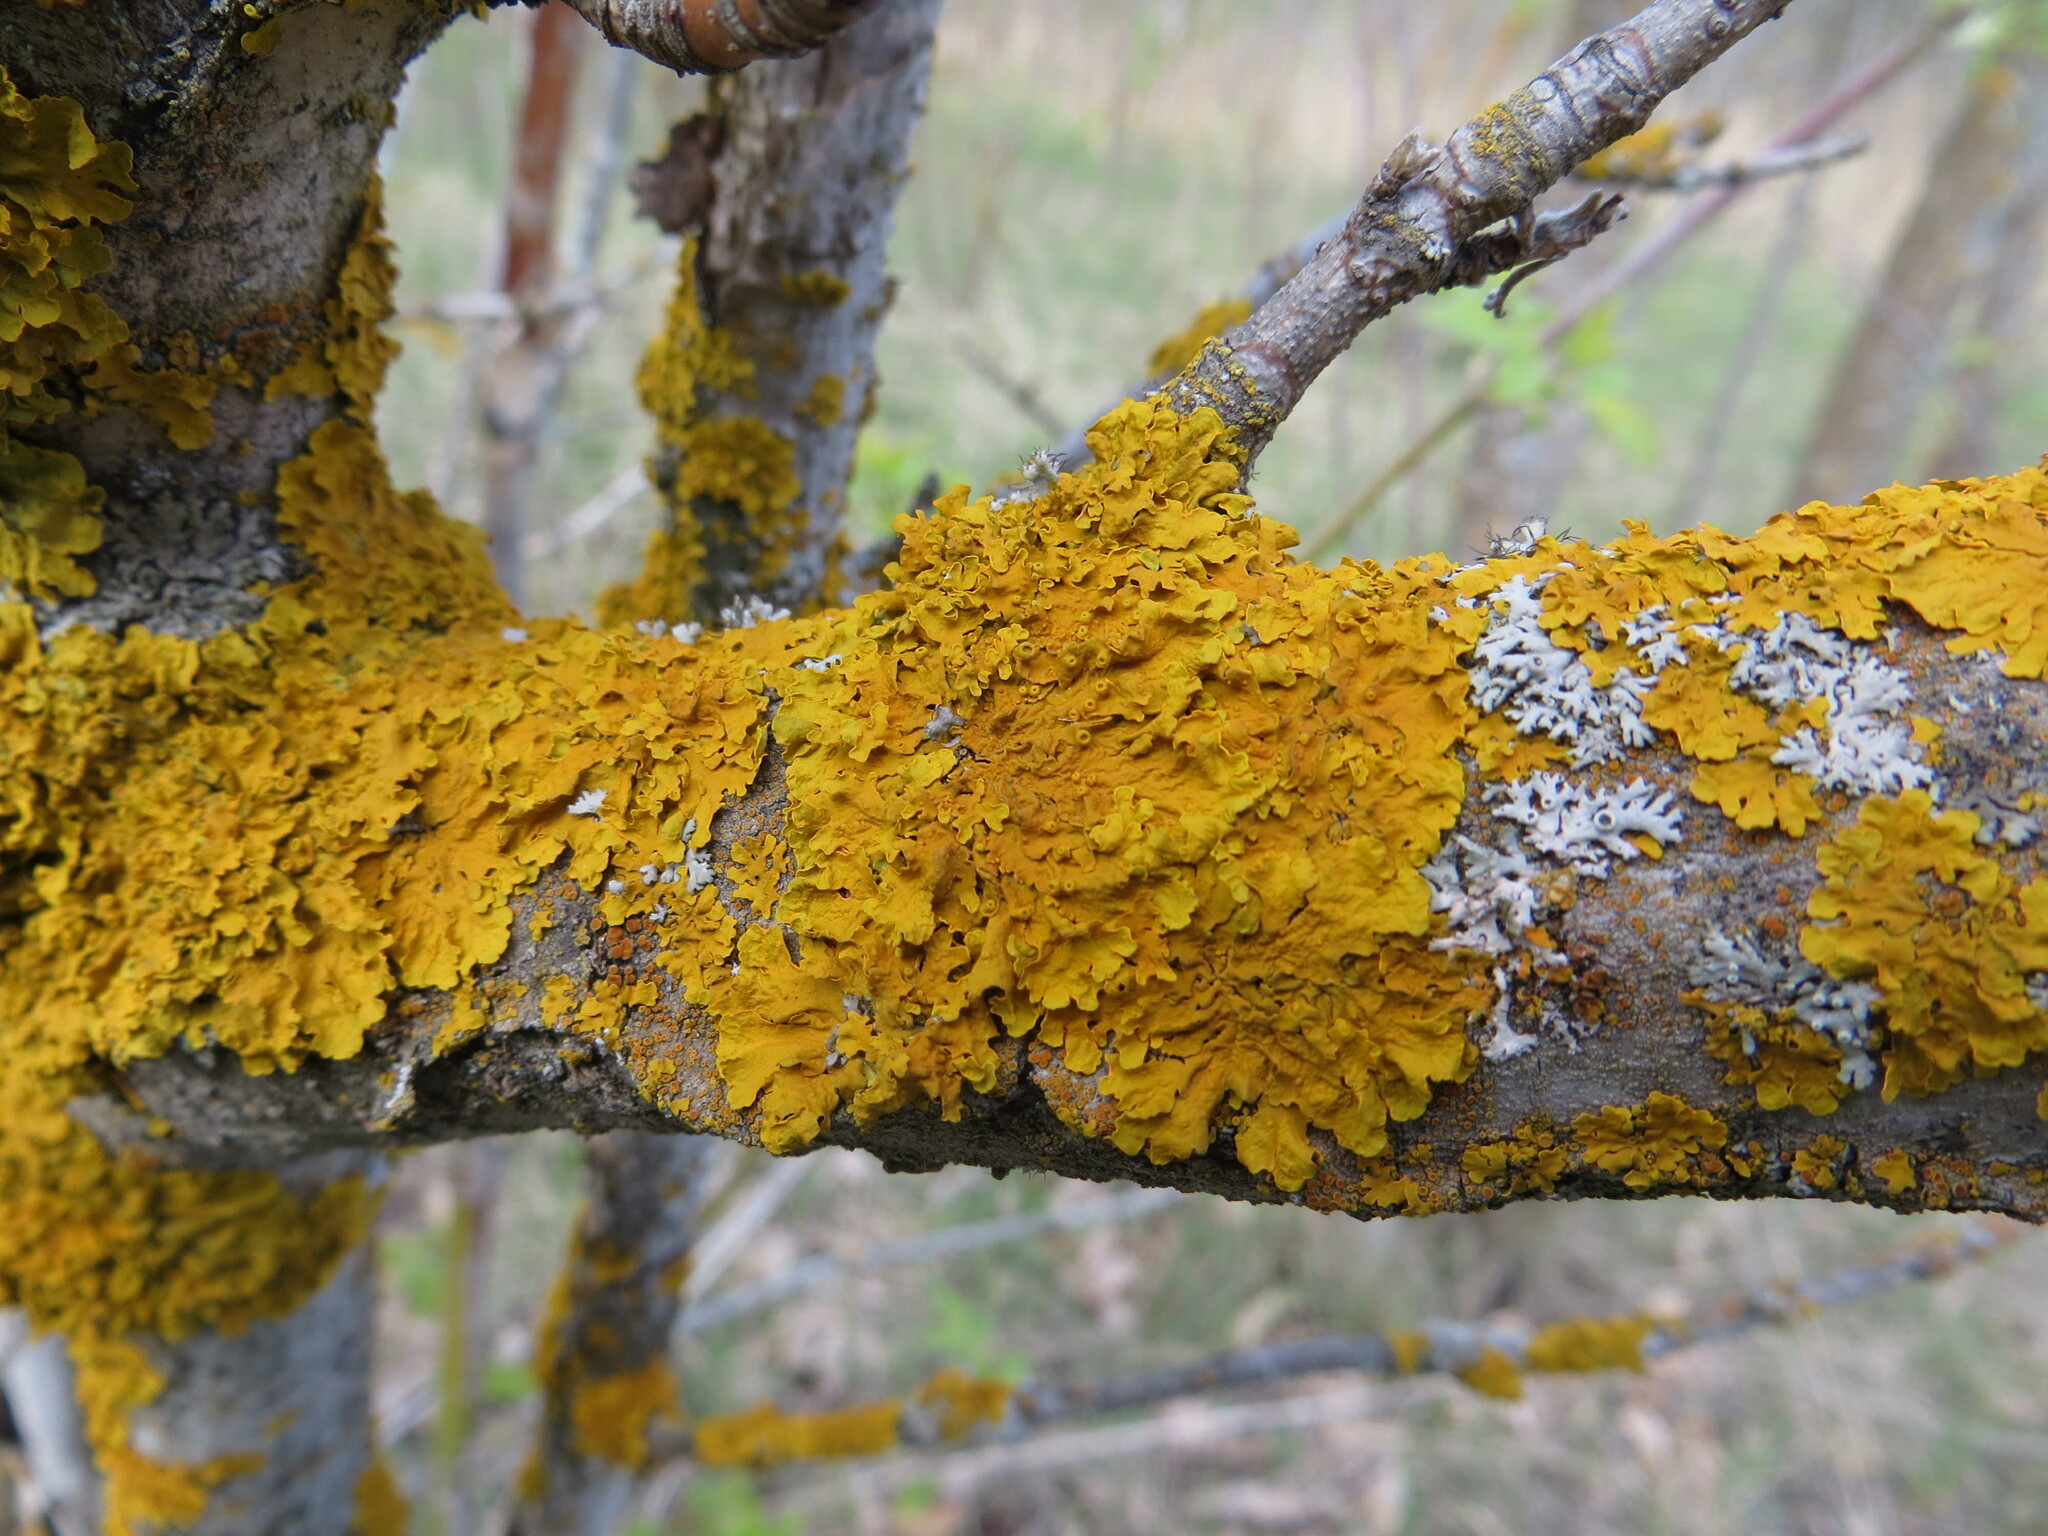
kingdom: Fungi
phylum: Ascomycota
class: Lecanoromycetes
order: Teloschistales
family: Teloschistaceae
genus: Xanthoria
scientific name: Xanthoria parietina
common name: Common orange lichen
